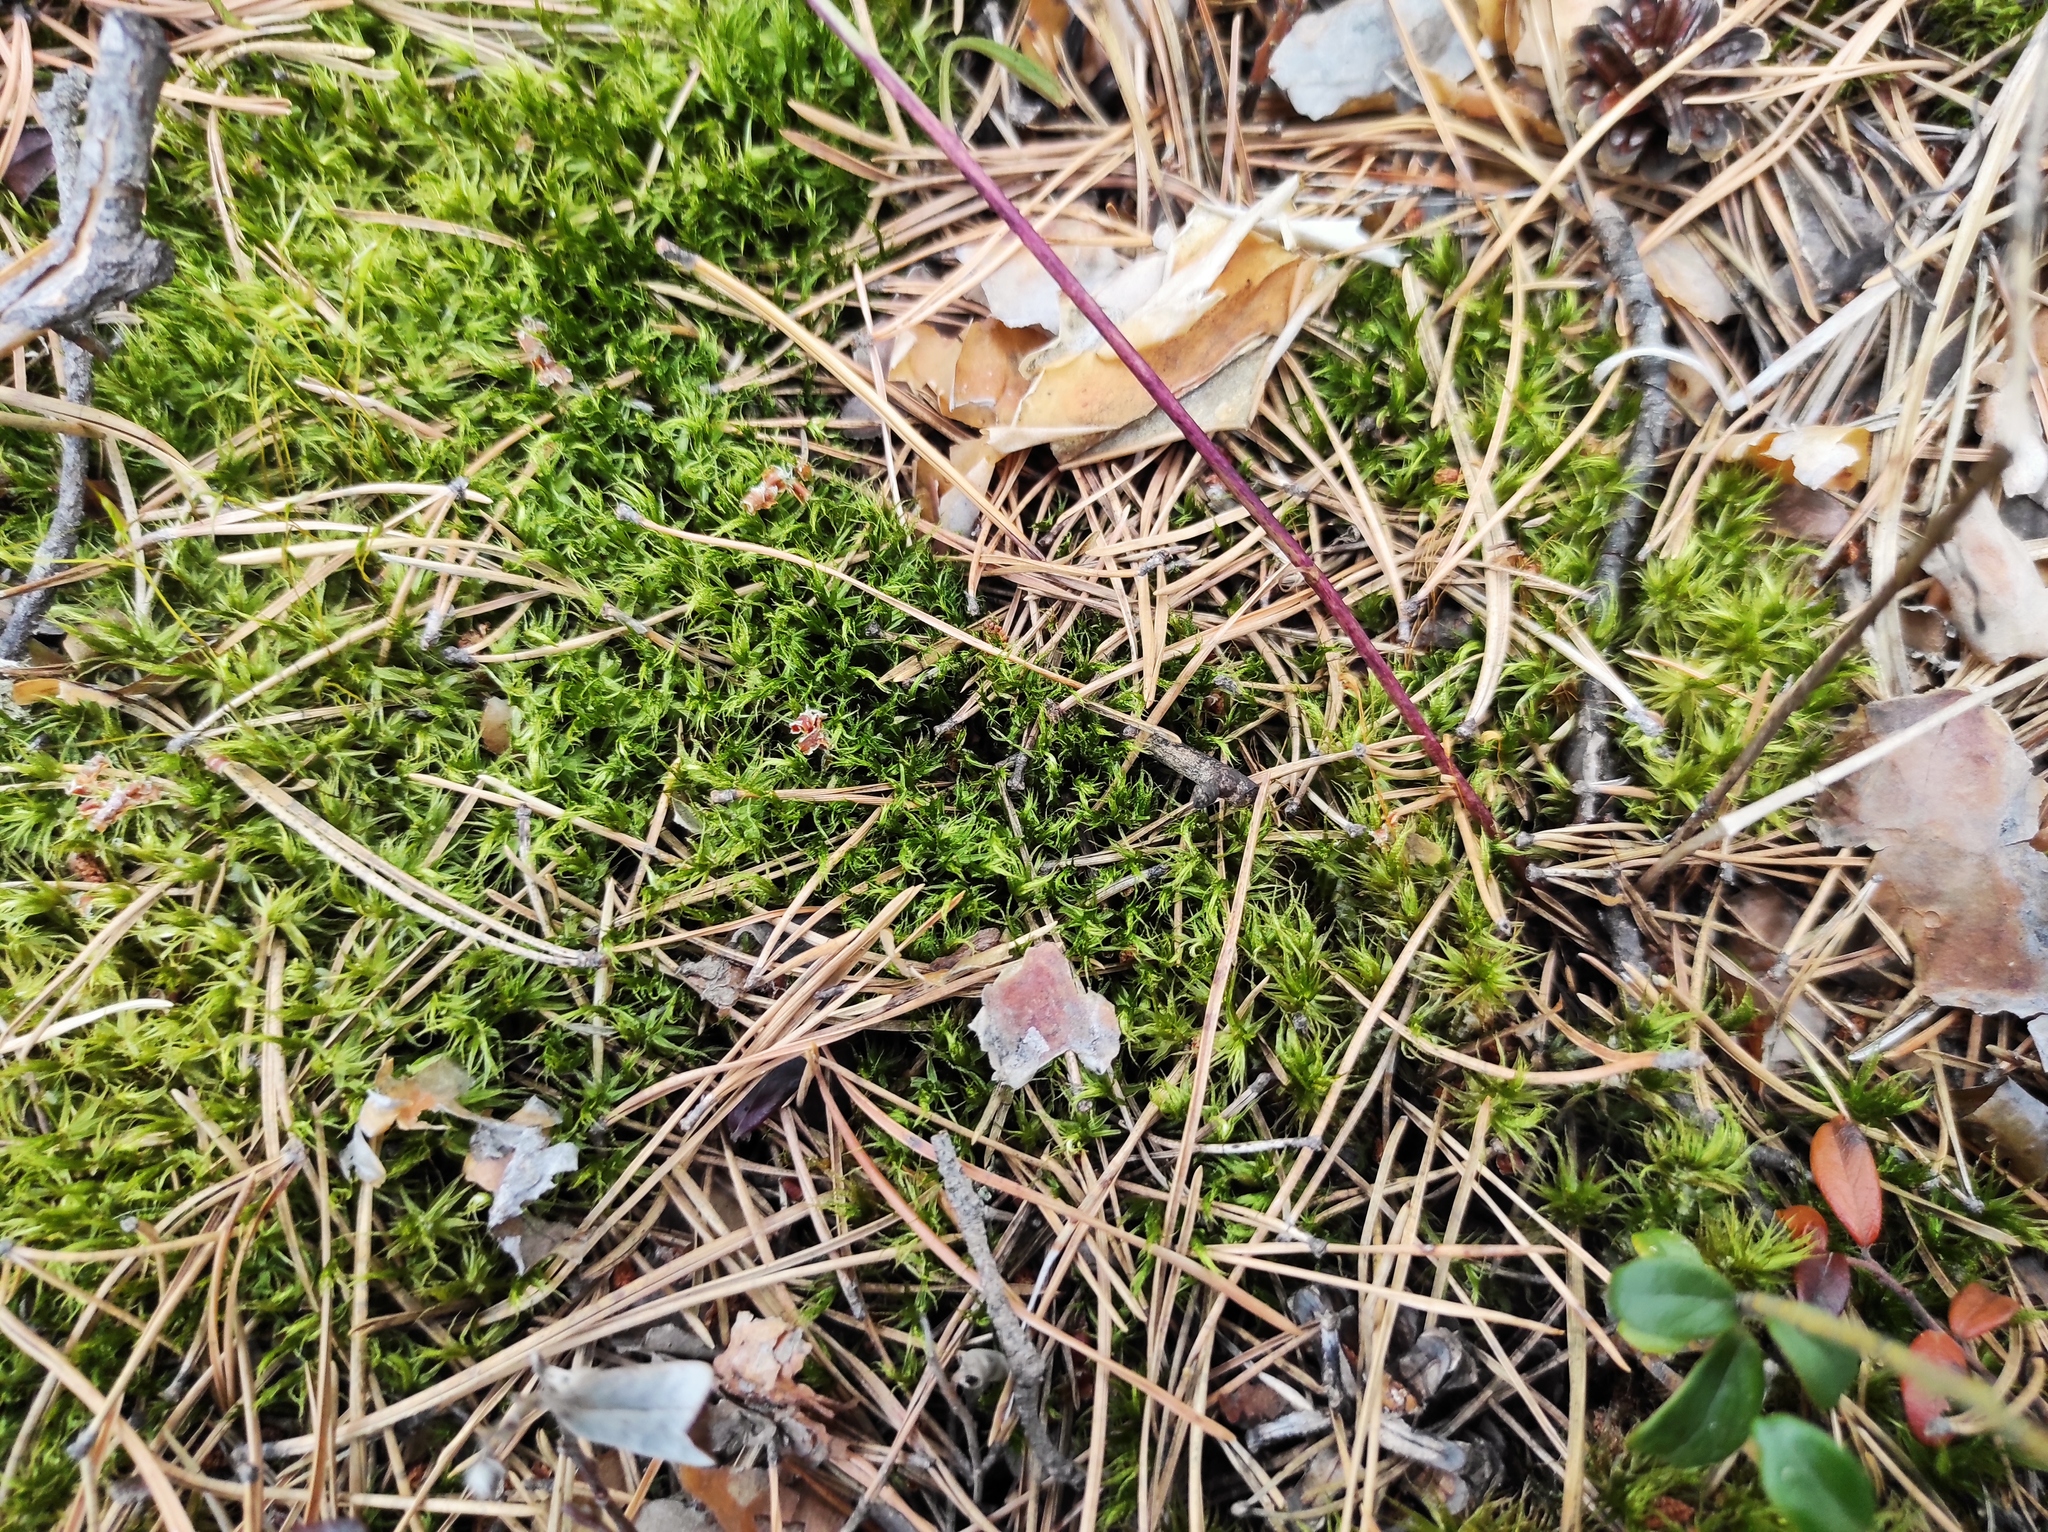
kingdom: Plantae
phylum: Tracheophyta
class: Magnoliopsida
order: Asterales
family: Asteraceae
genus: Hieracium
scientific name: Hieracium umbellatum
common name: Northern hawkweed
